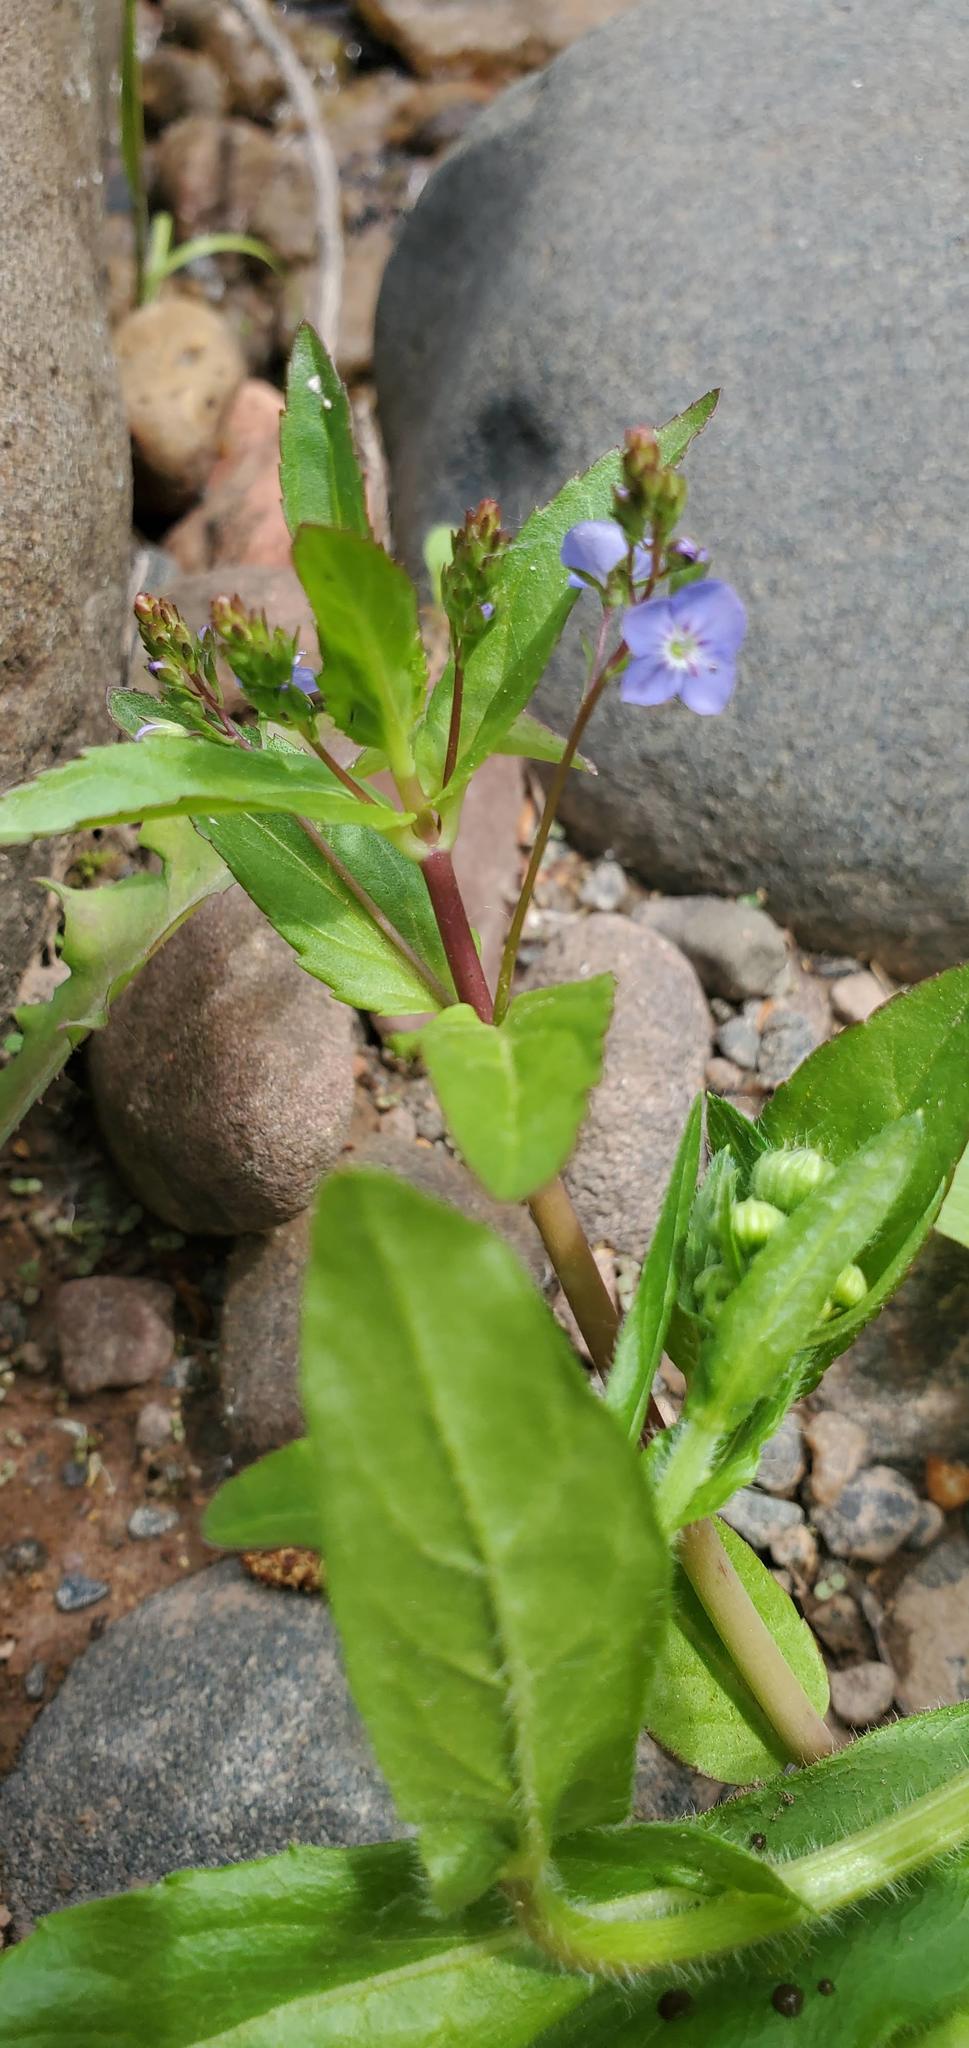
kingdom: Plantae
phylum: Tracheophyta
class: Magnoliopsida
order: Lamiales
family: Plantaginaceae
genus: Veronica
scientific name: Veronica americana
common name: American brooklime
